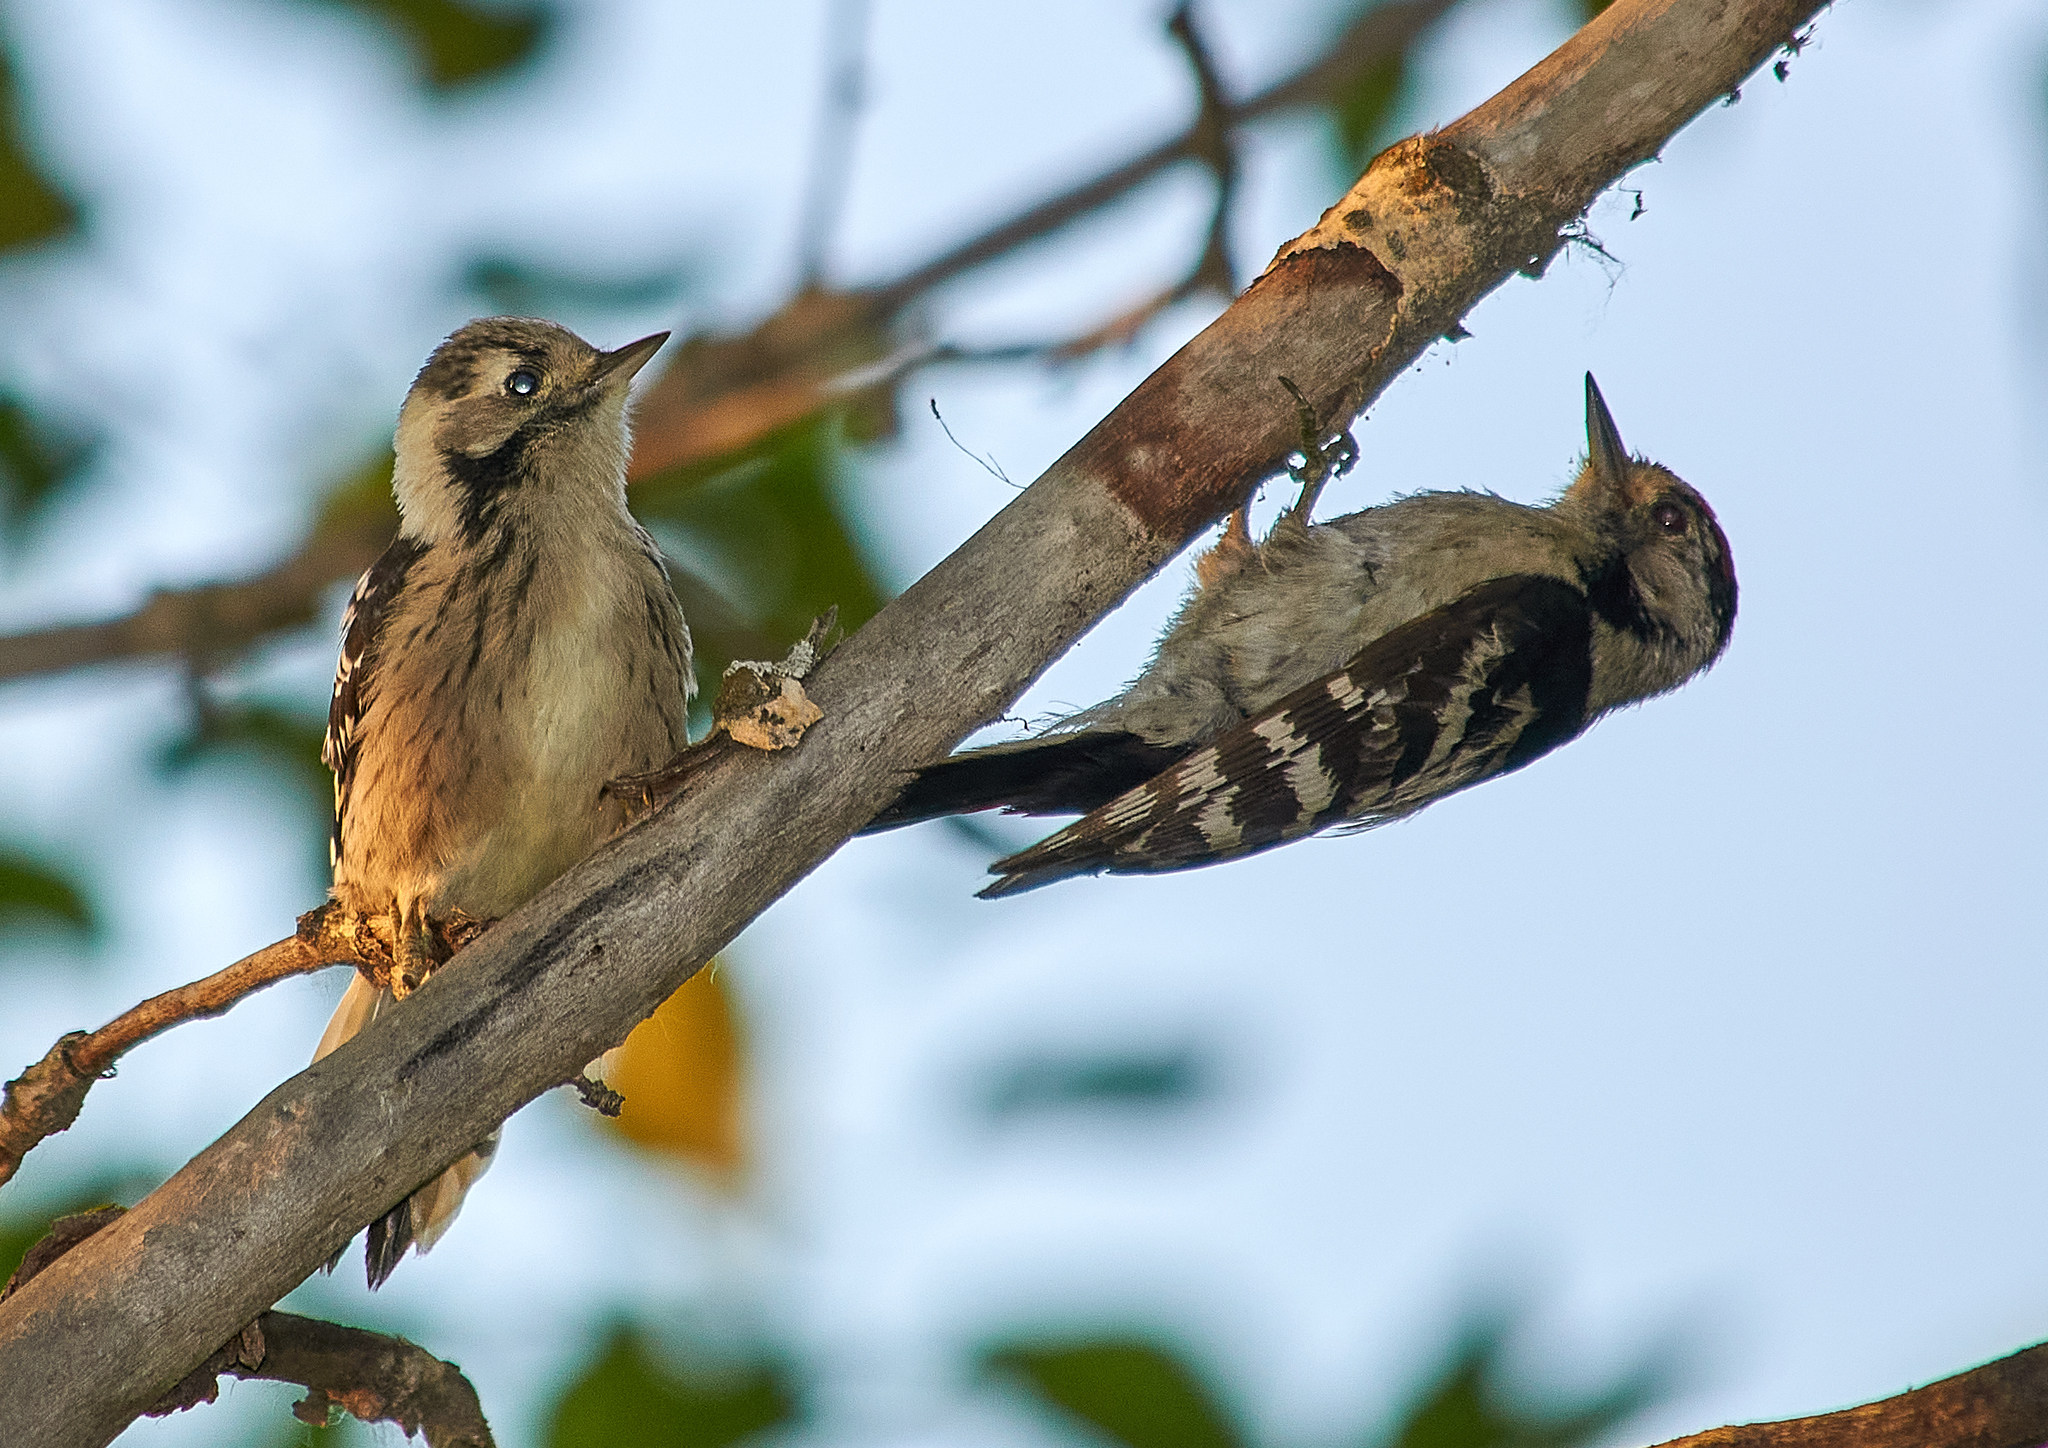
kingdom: Animalia
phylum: Chordata
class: Aves
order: Piciformes
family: Picidae
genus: Dryobates
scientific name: Dryobates minor
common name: Lesser spotted woodpecker
